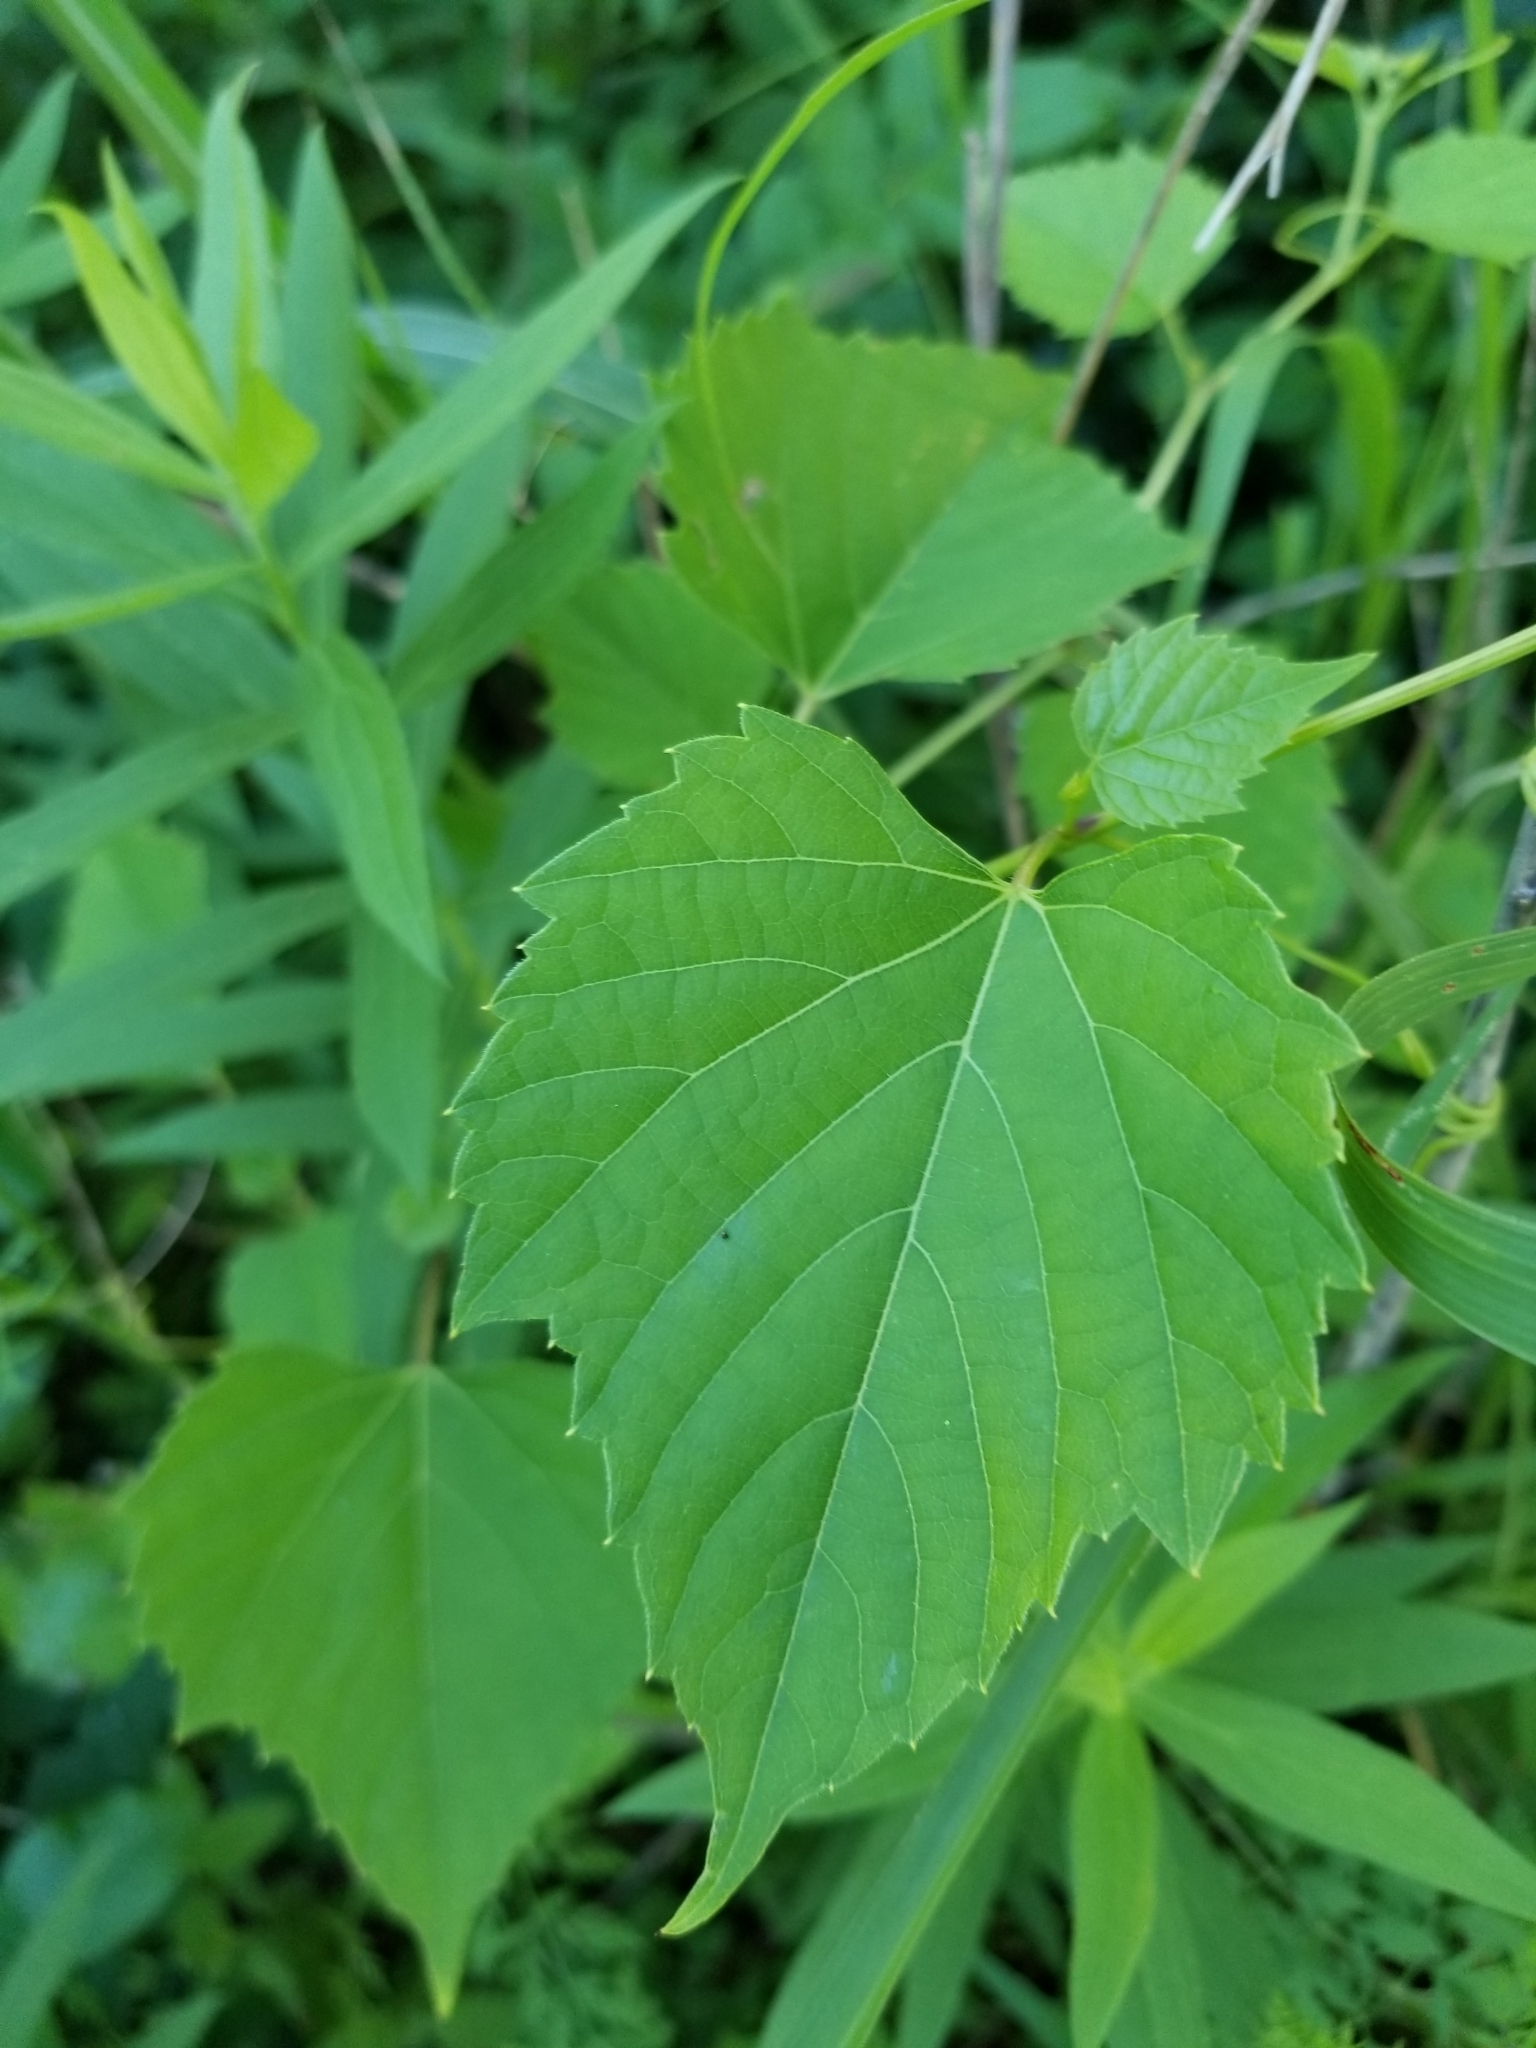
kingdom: Plantae
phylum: Tracheophyta
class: Magnoliopsida
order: Vitales
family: Vitaceae
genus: Ampelopsis
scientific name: Ampelopsis cordata
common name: Heart-leaf ampelopsis
